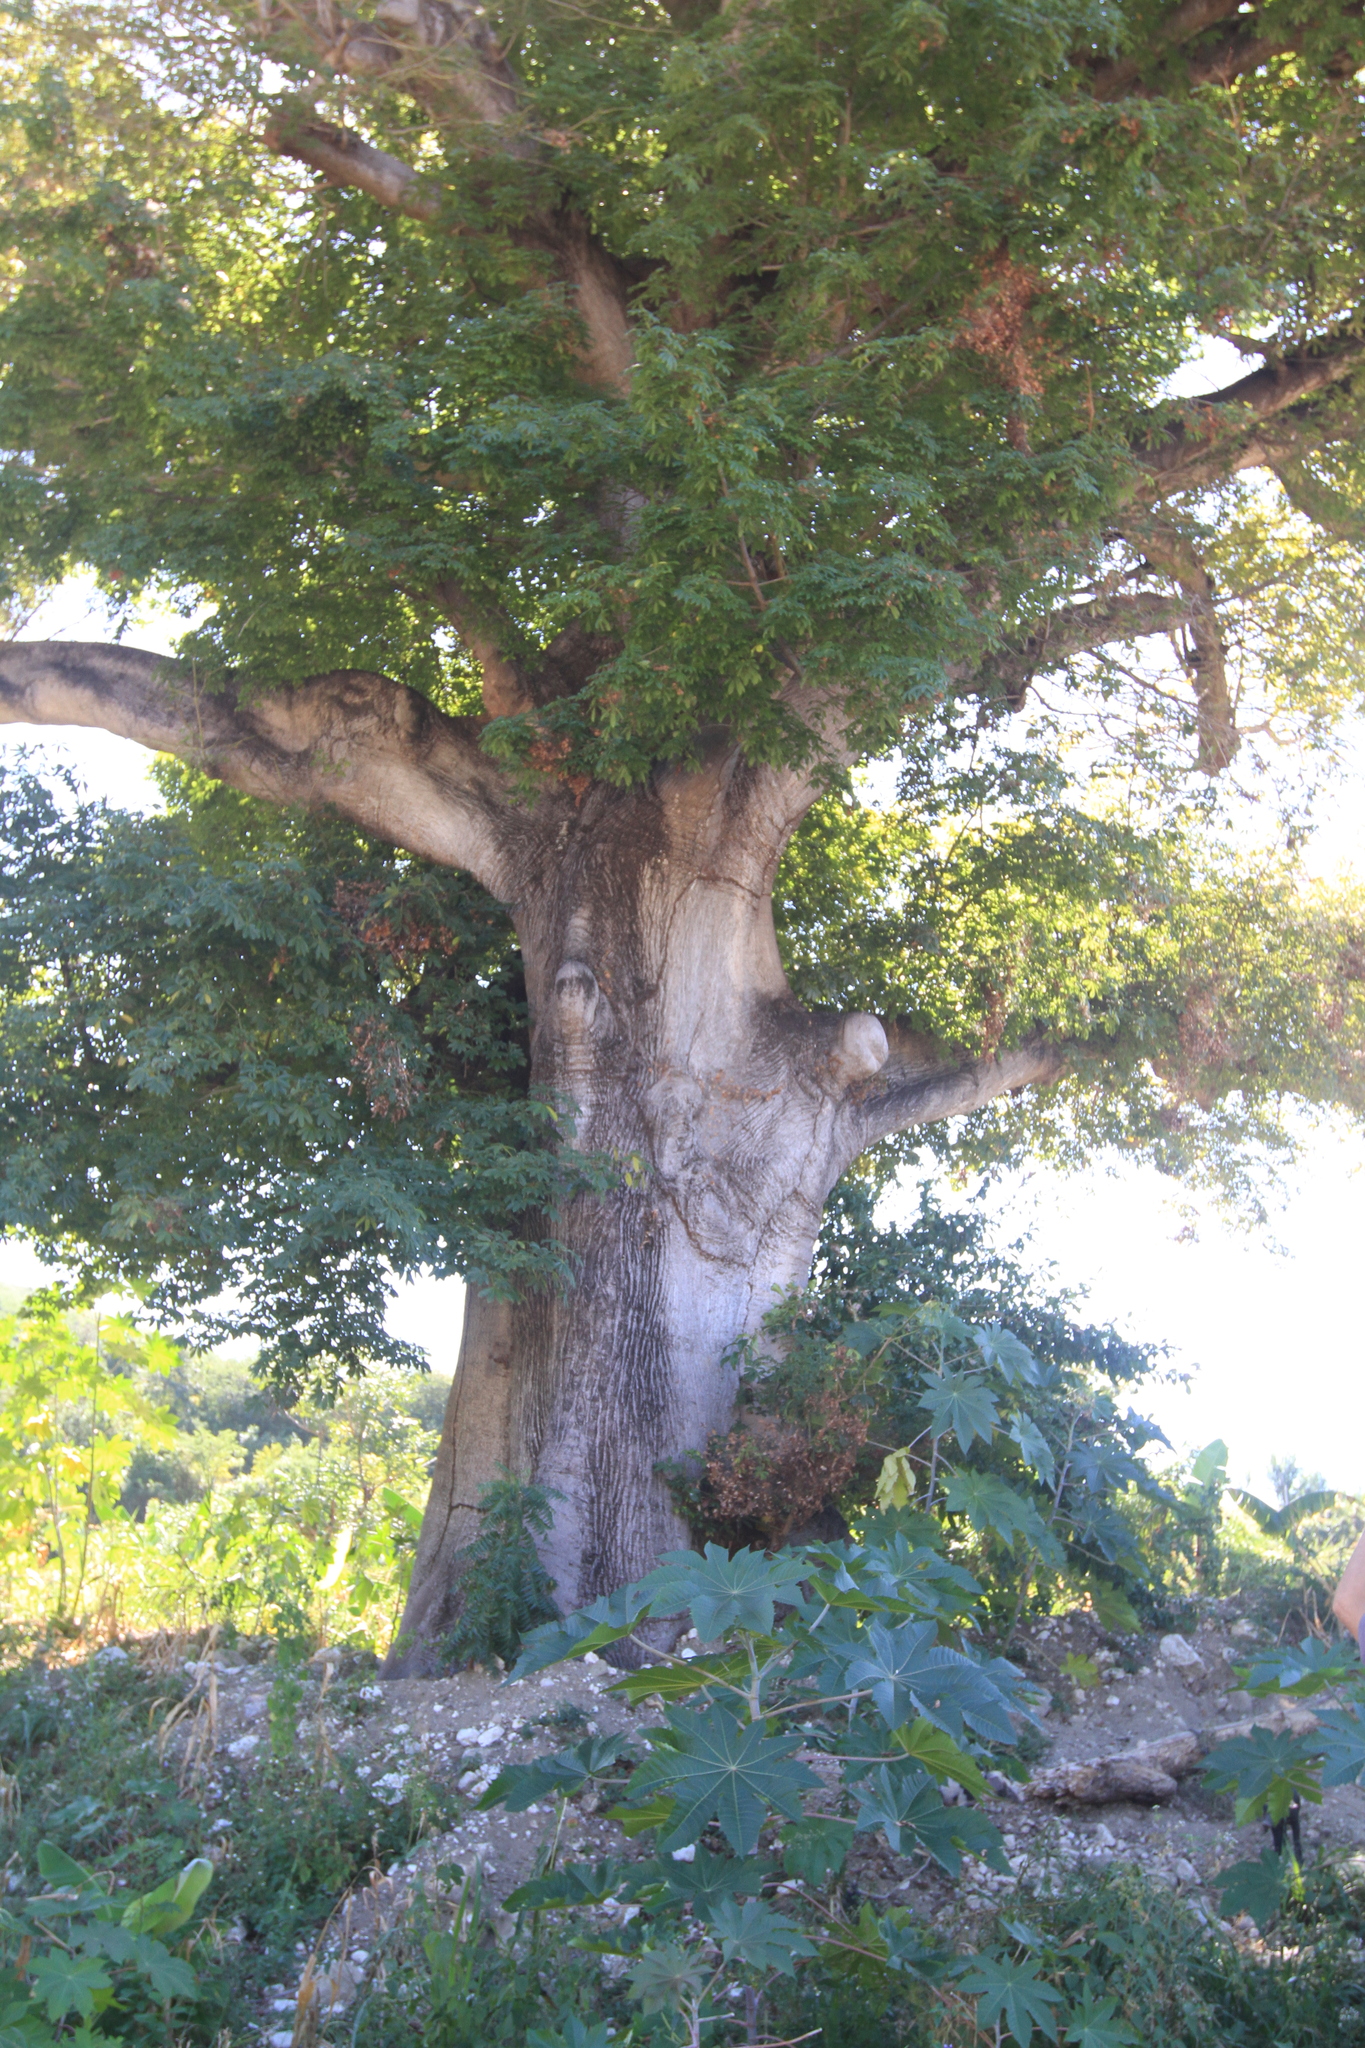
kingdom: Plantae
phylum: Tracheophyta
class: Magnoliopsida
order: Malvales
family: Malvaceae
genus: Ceiba
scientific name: Ceiba pentandra
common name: Kapok
